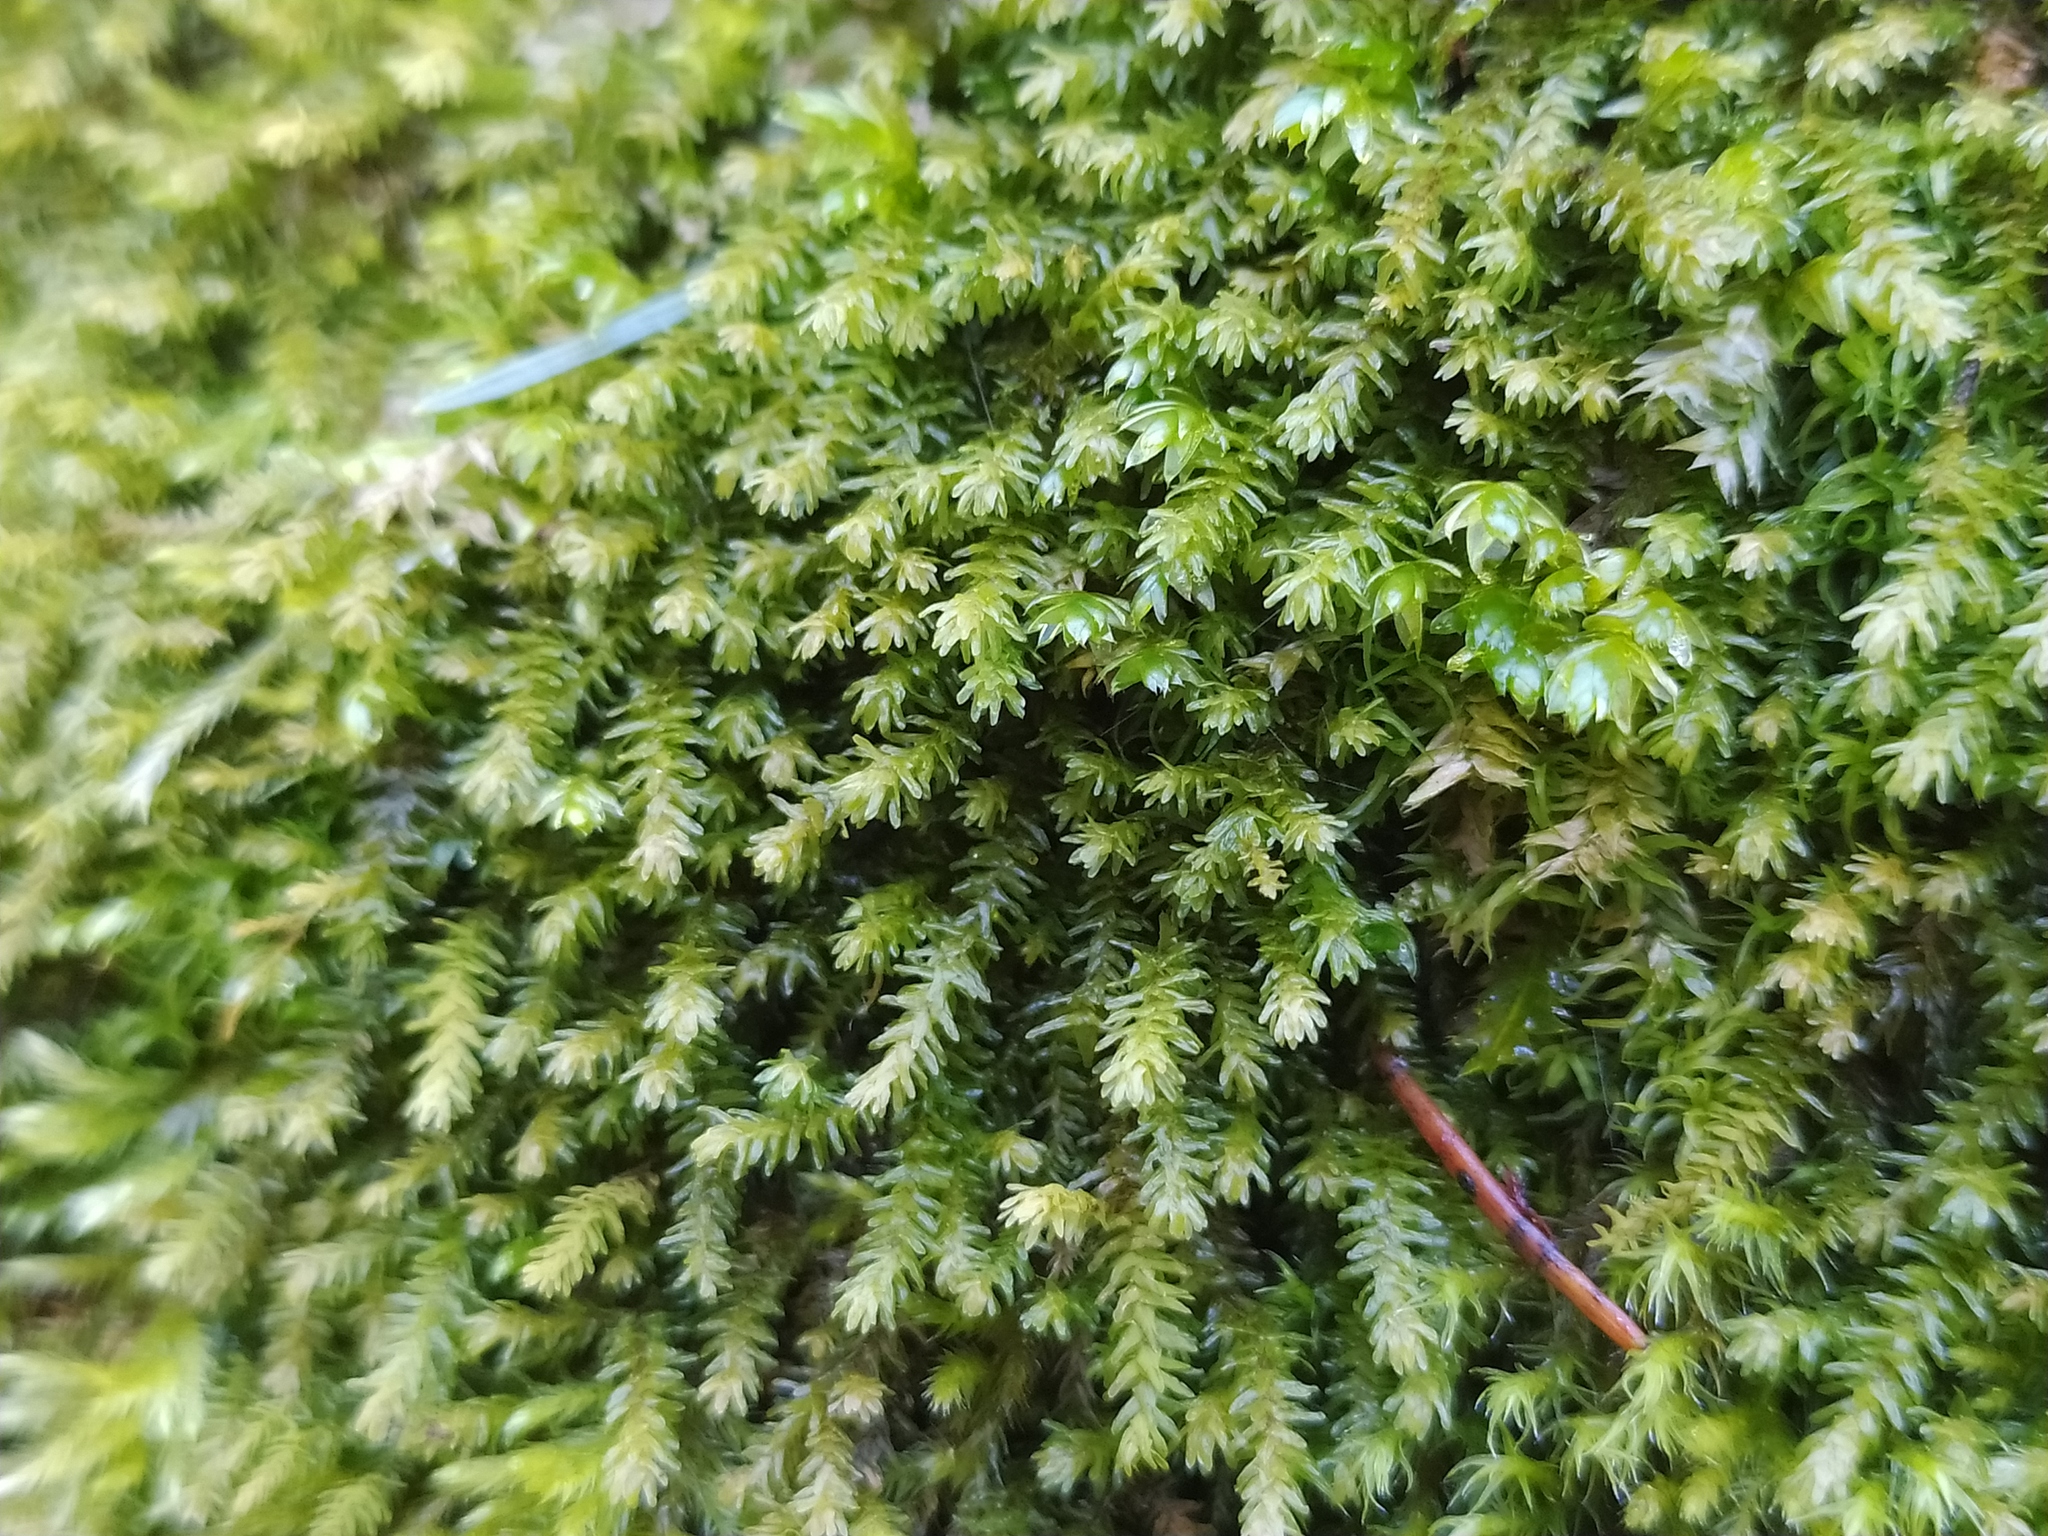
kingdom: Plantae
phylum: Bryophyta
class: Bryopsida
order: Hypnales
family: Anomodontaceae
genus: Anomodontopsis
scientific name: Anomodontopsis rugelii
